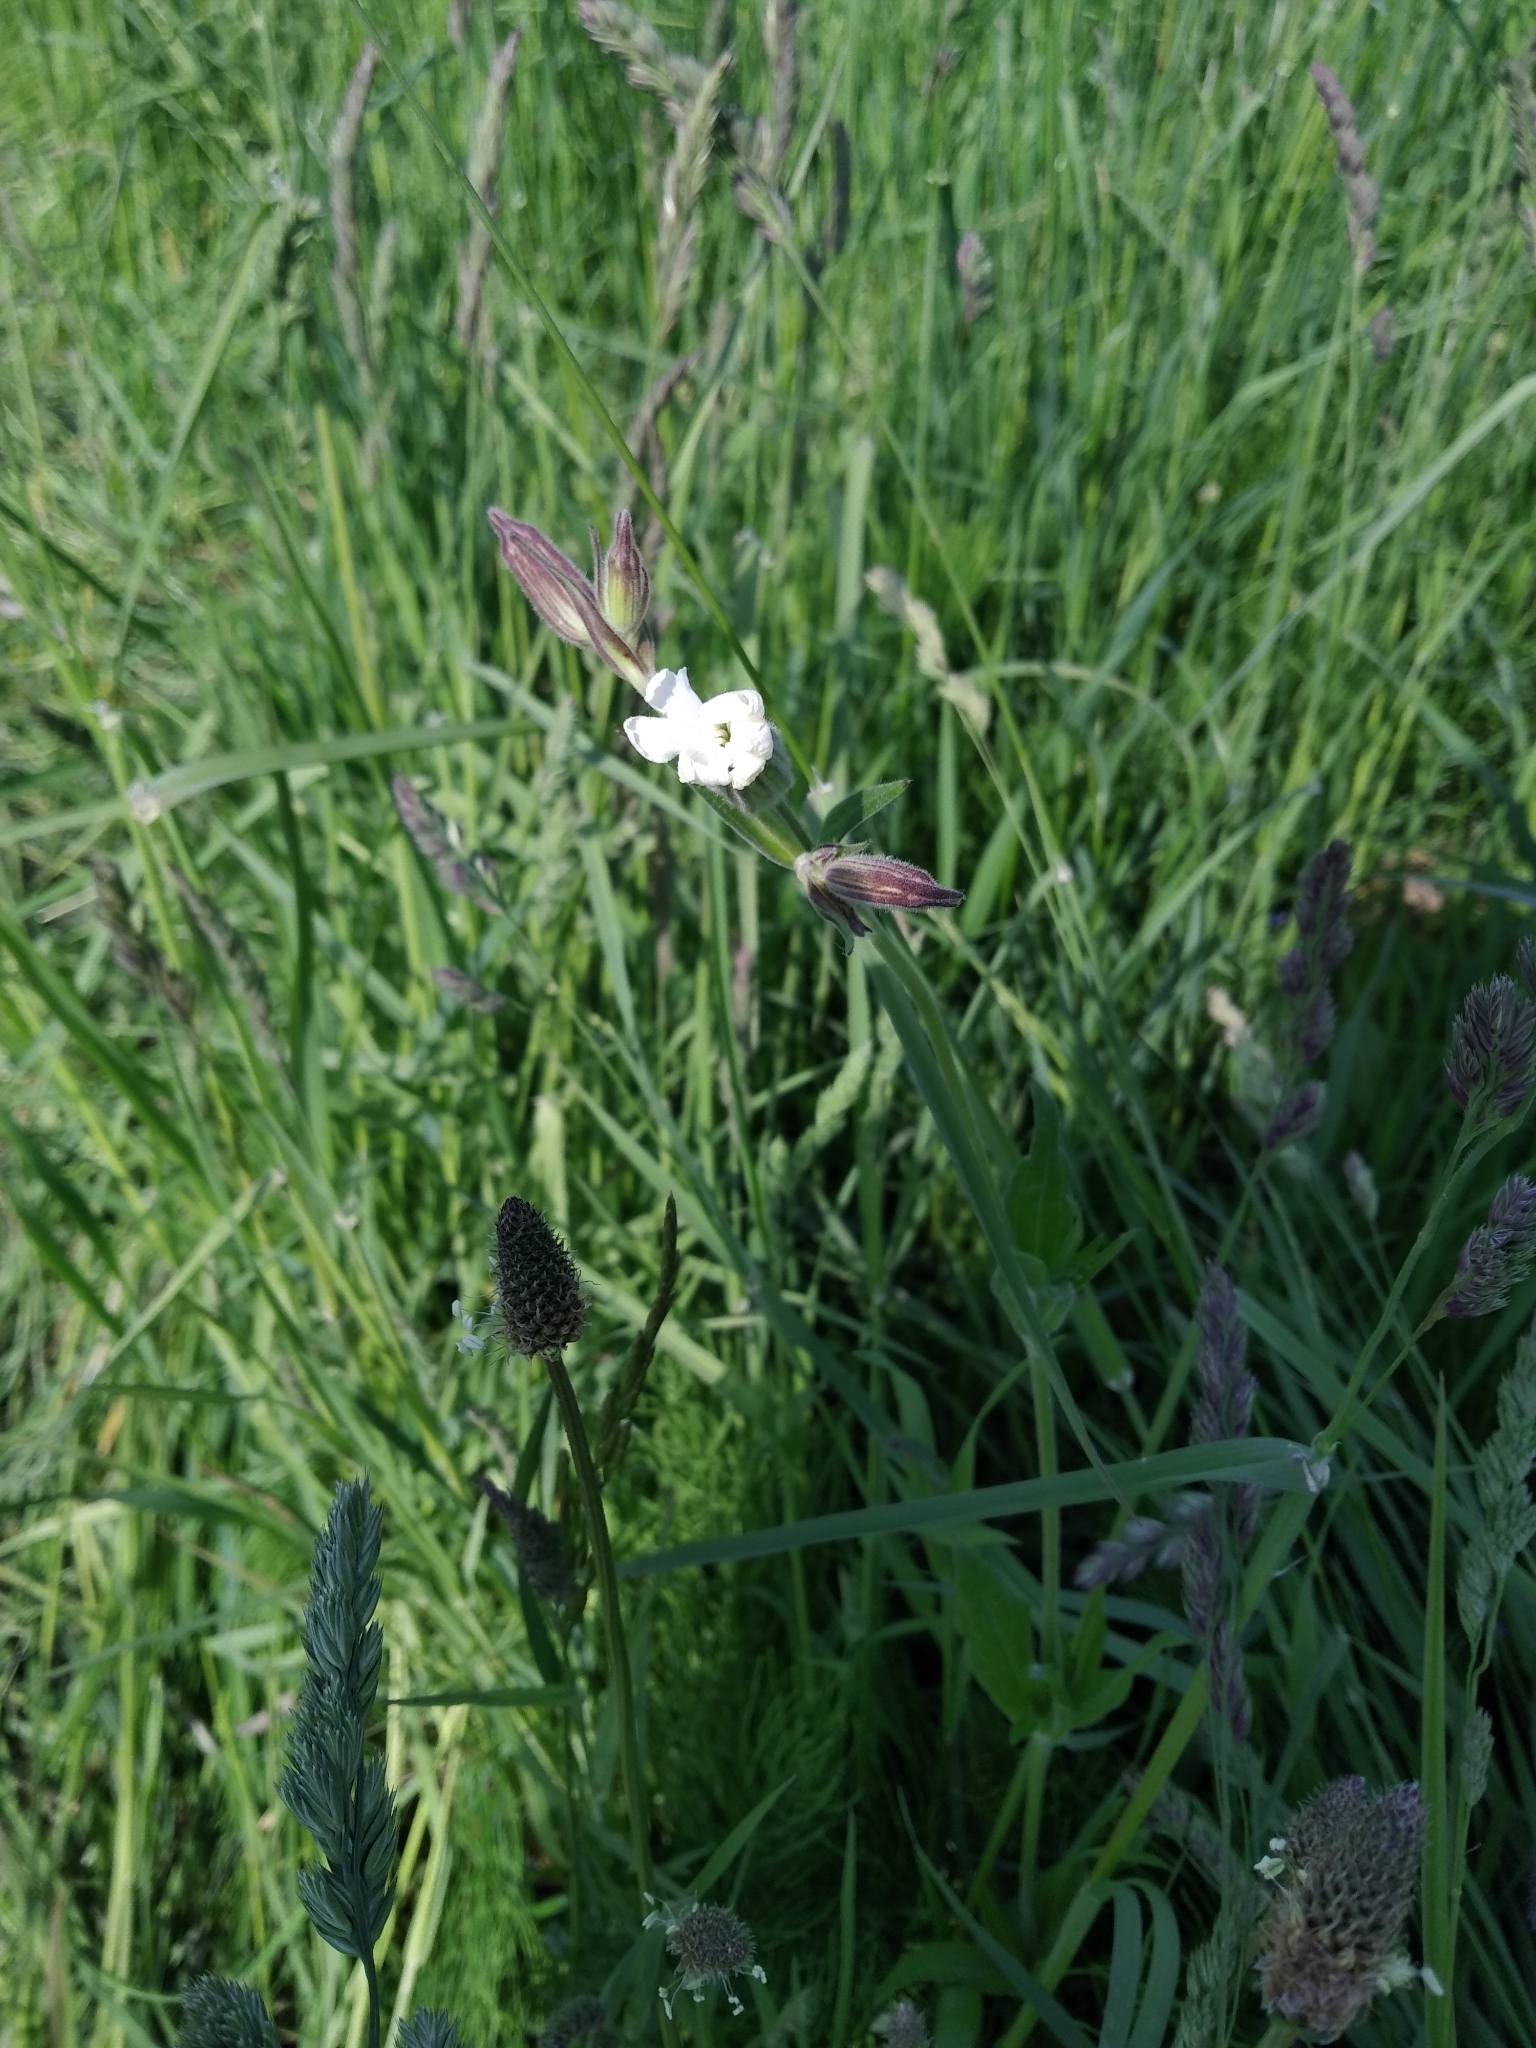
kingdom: Plantae
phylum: Tracheophyta
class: Magnoliopsida
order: Caryophyllales
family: Caryophyllaceae
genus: Silene
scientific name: Silene latifolia
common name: White campion
